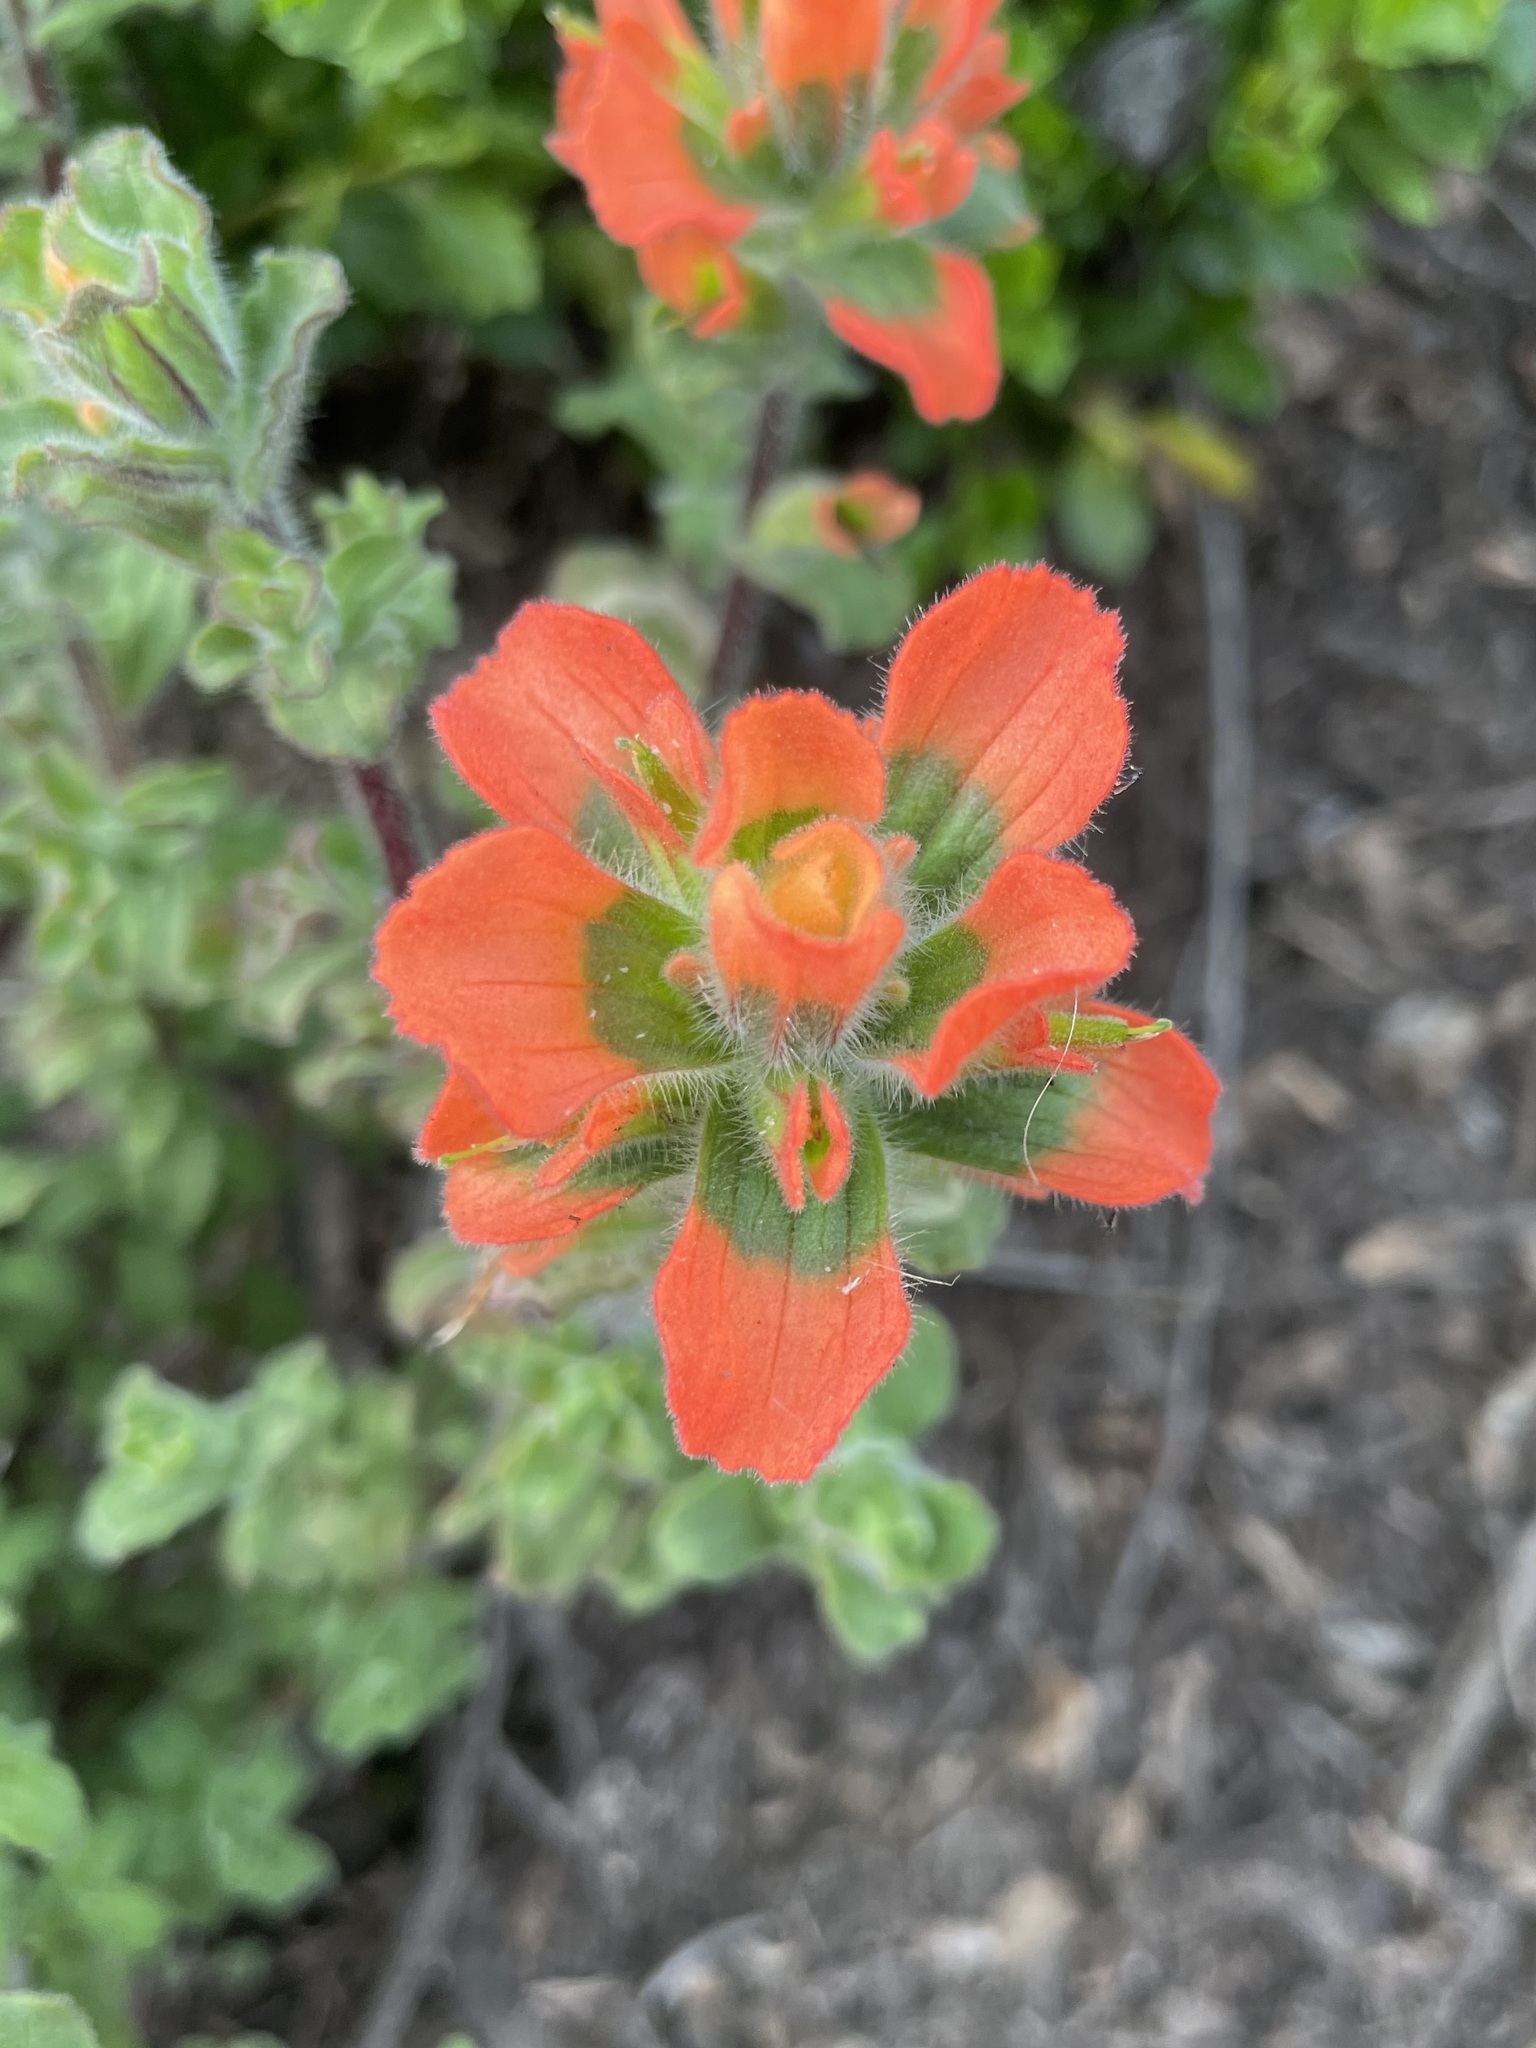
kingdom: Plantae
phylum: Tracheophyta
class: Magnoliopsida
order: Lamiales
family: Orobanchaceae
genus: Castilleja
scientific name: Castilleja latifolia
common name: Monterey indian paintbrush
